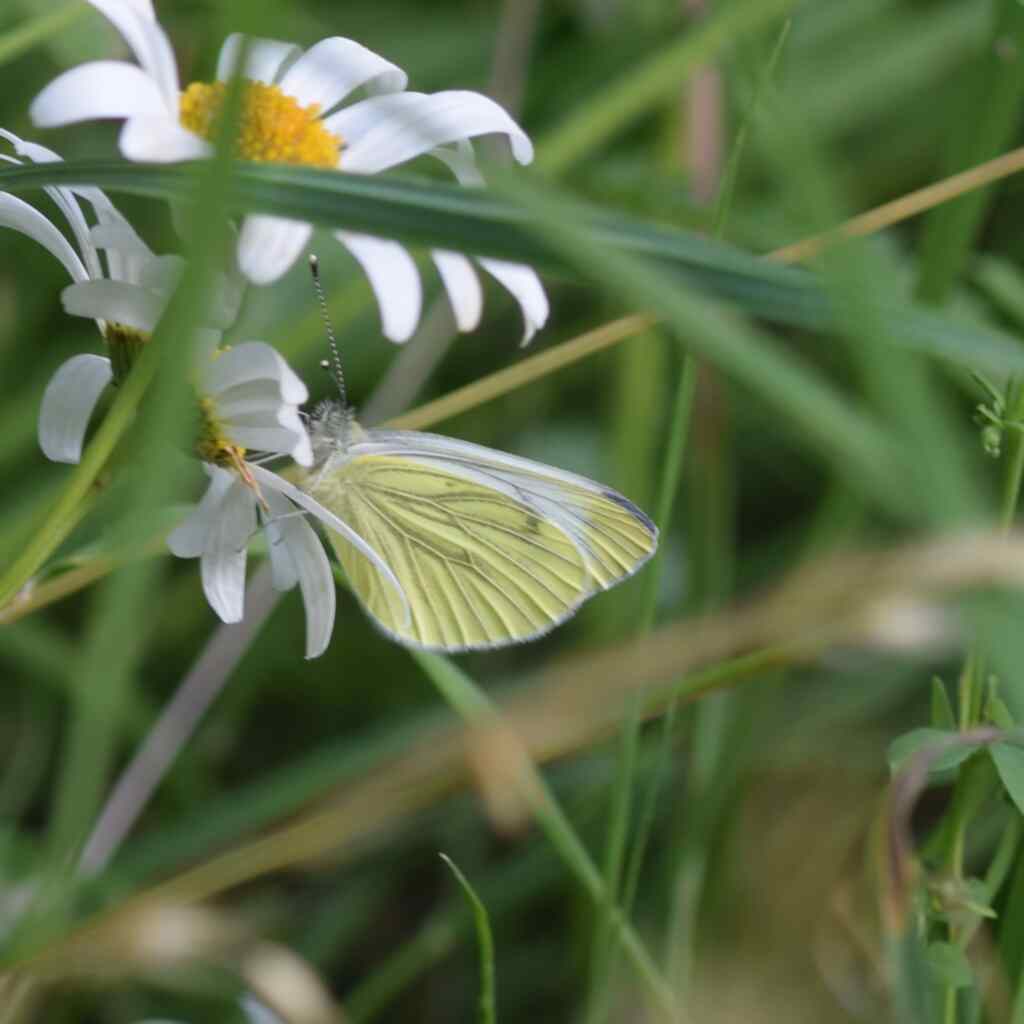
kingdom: Animalia
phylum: Arthropoda
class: Insecta
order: Lepidoptera
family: Pieridae
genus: Pieris
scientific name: Pieris napi
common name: Green-veined white
